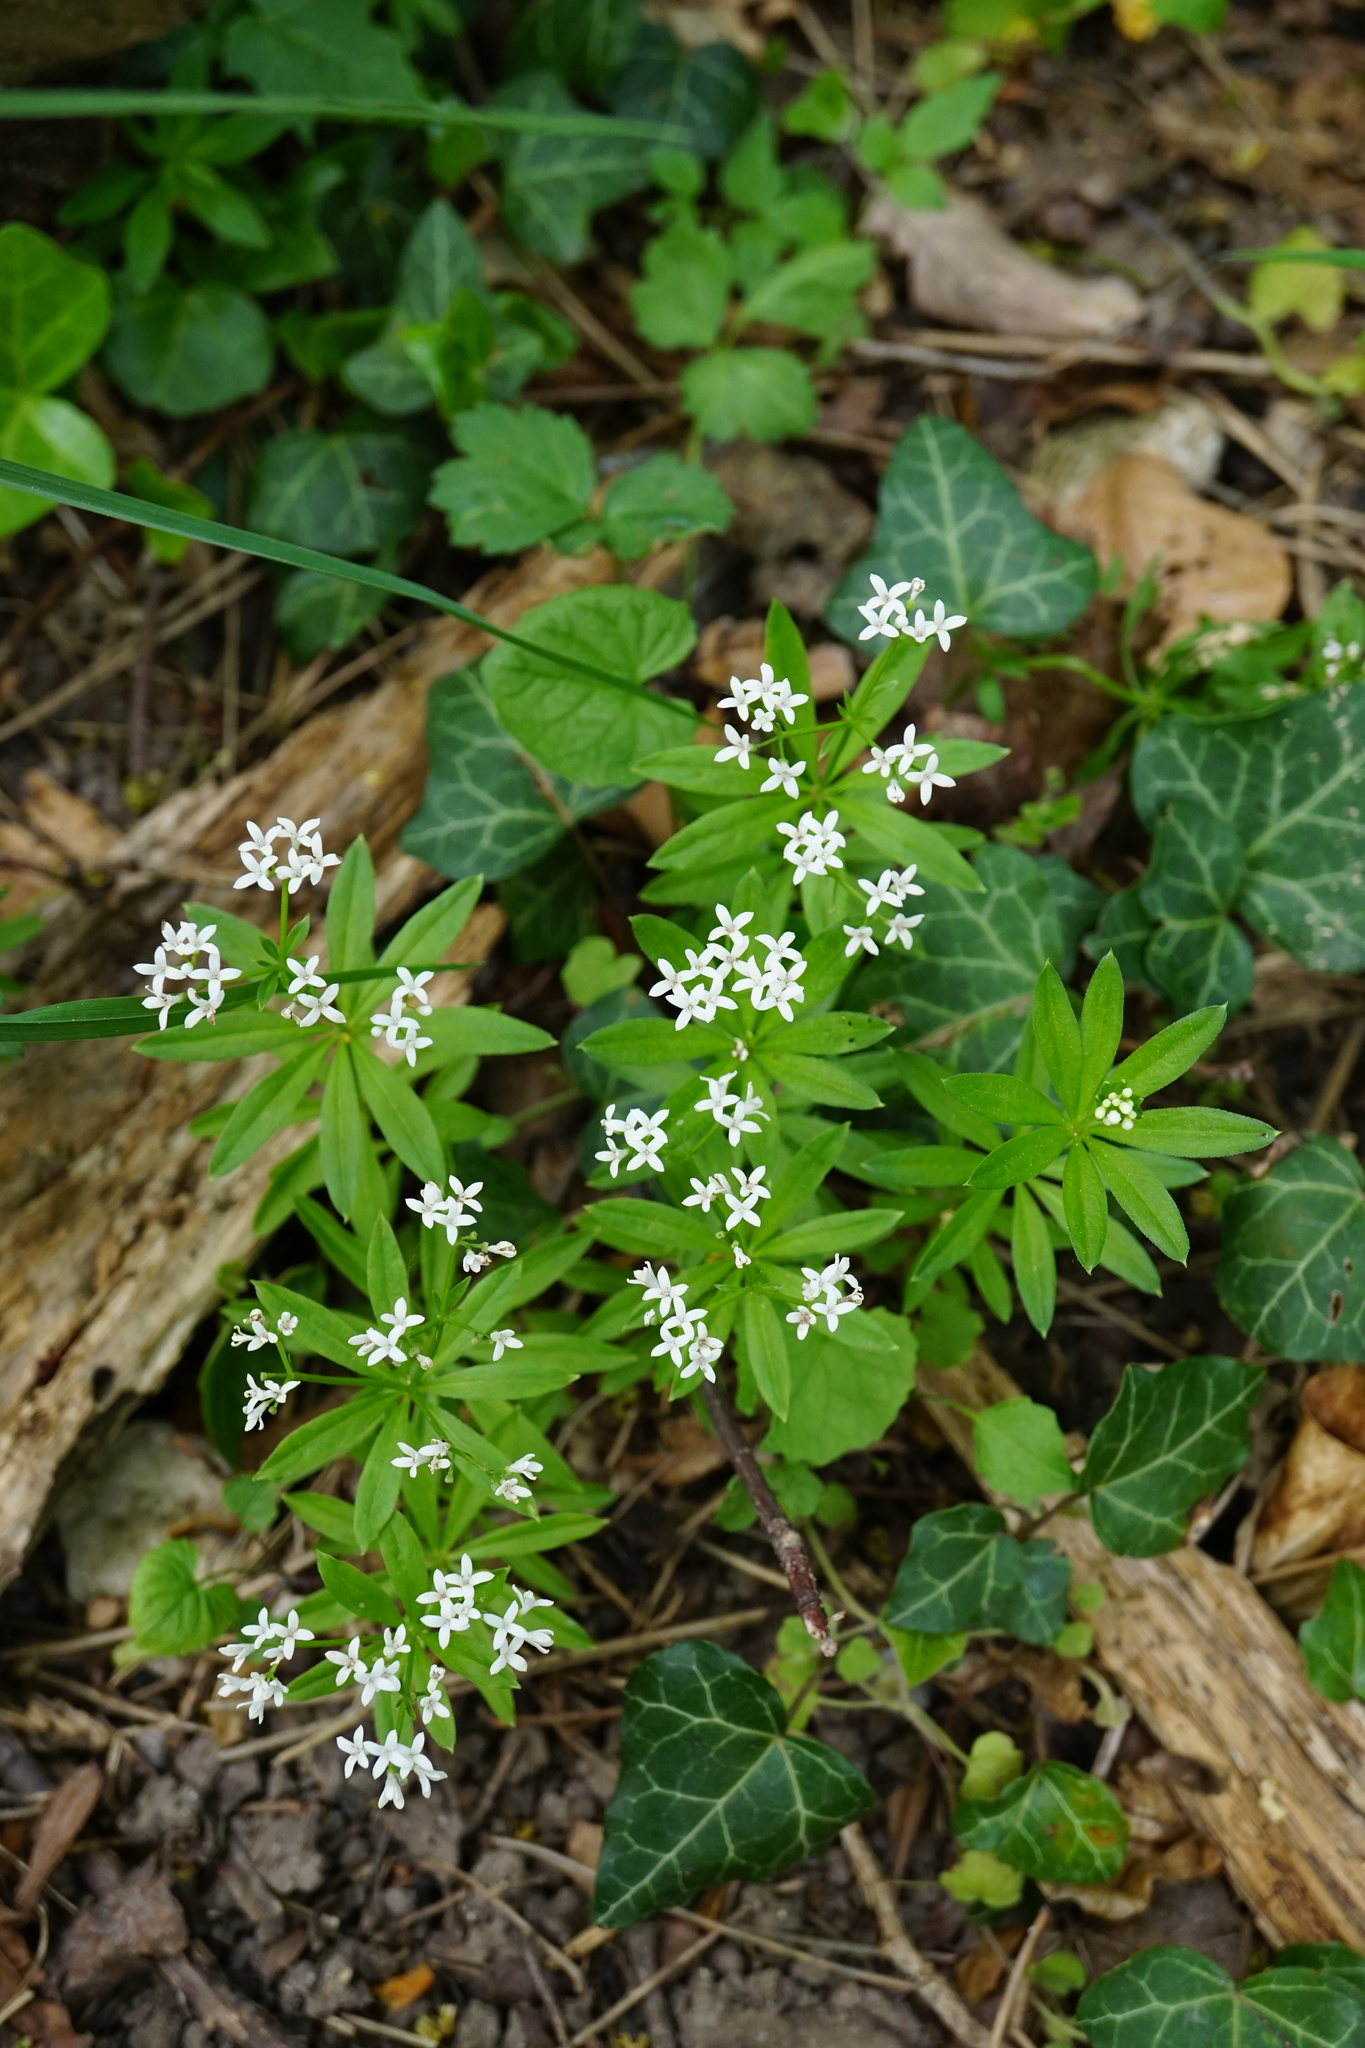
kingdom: Plantae
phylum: Tracheophyta
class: Magnoliopsida
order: Gentianales
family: Rubiaceae
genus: Galium
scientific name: Galium odoratum
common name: Sweet woodruff
